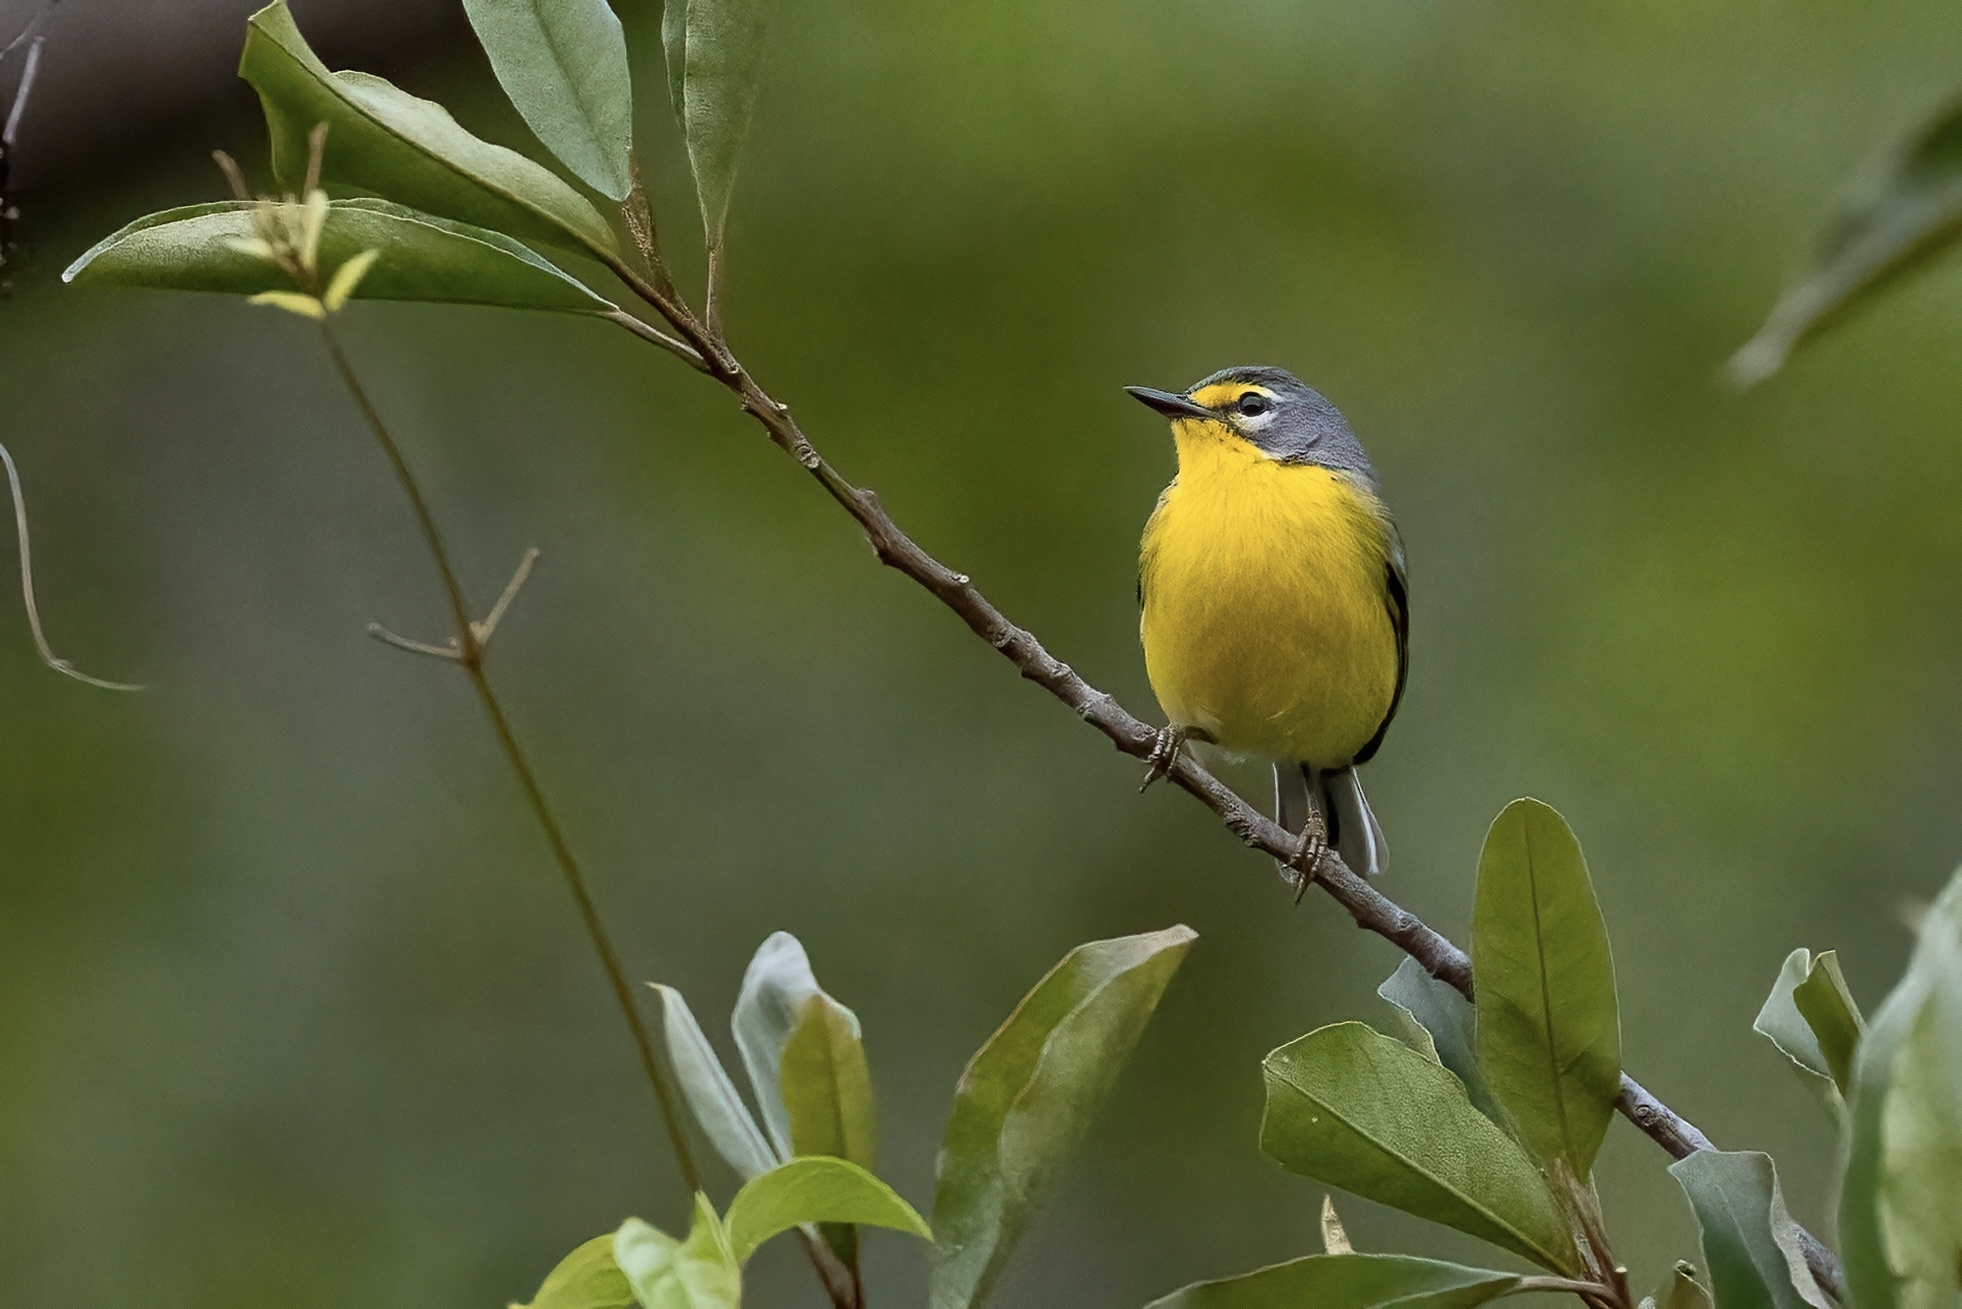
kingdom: Animalia
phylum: Chordata
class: Aves
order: Passeriformes
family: Parulidae
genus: Setophaga
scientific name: Setophaga adelaidae
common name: Adelaide's warbler
